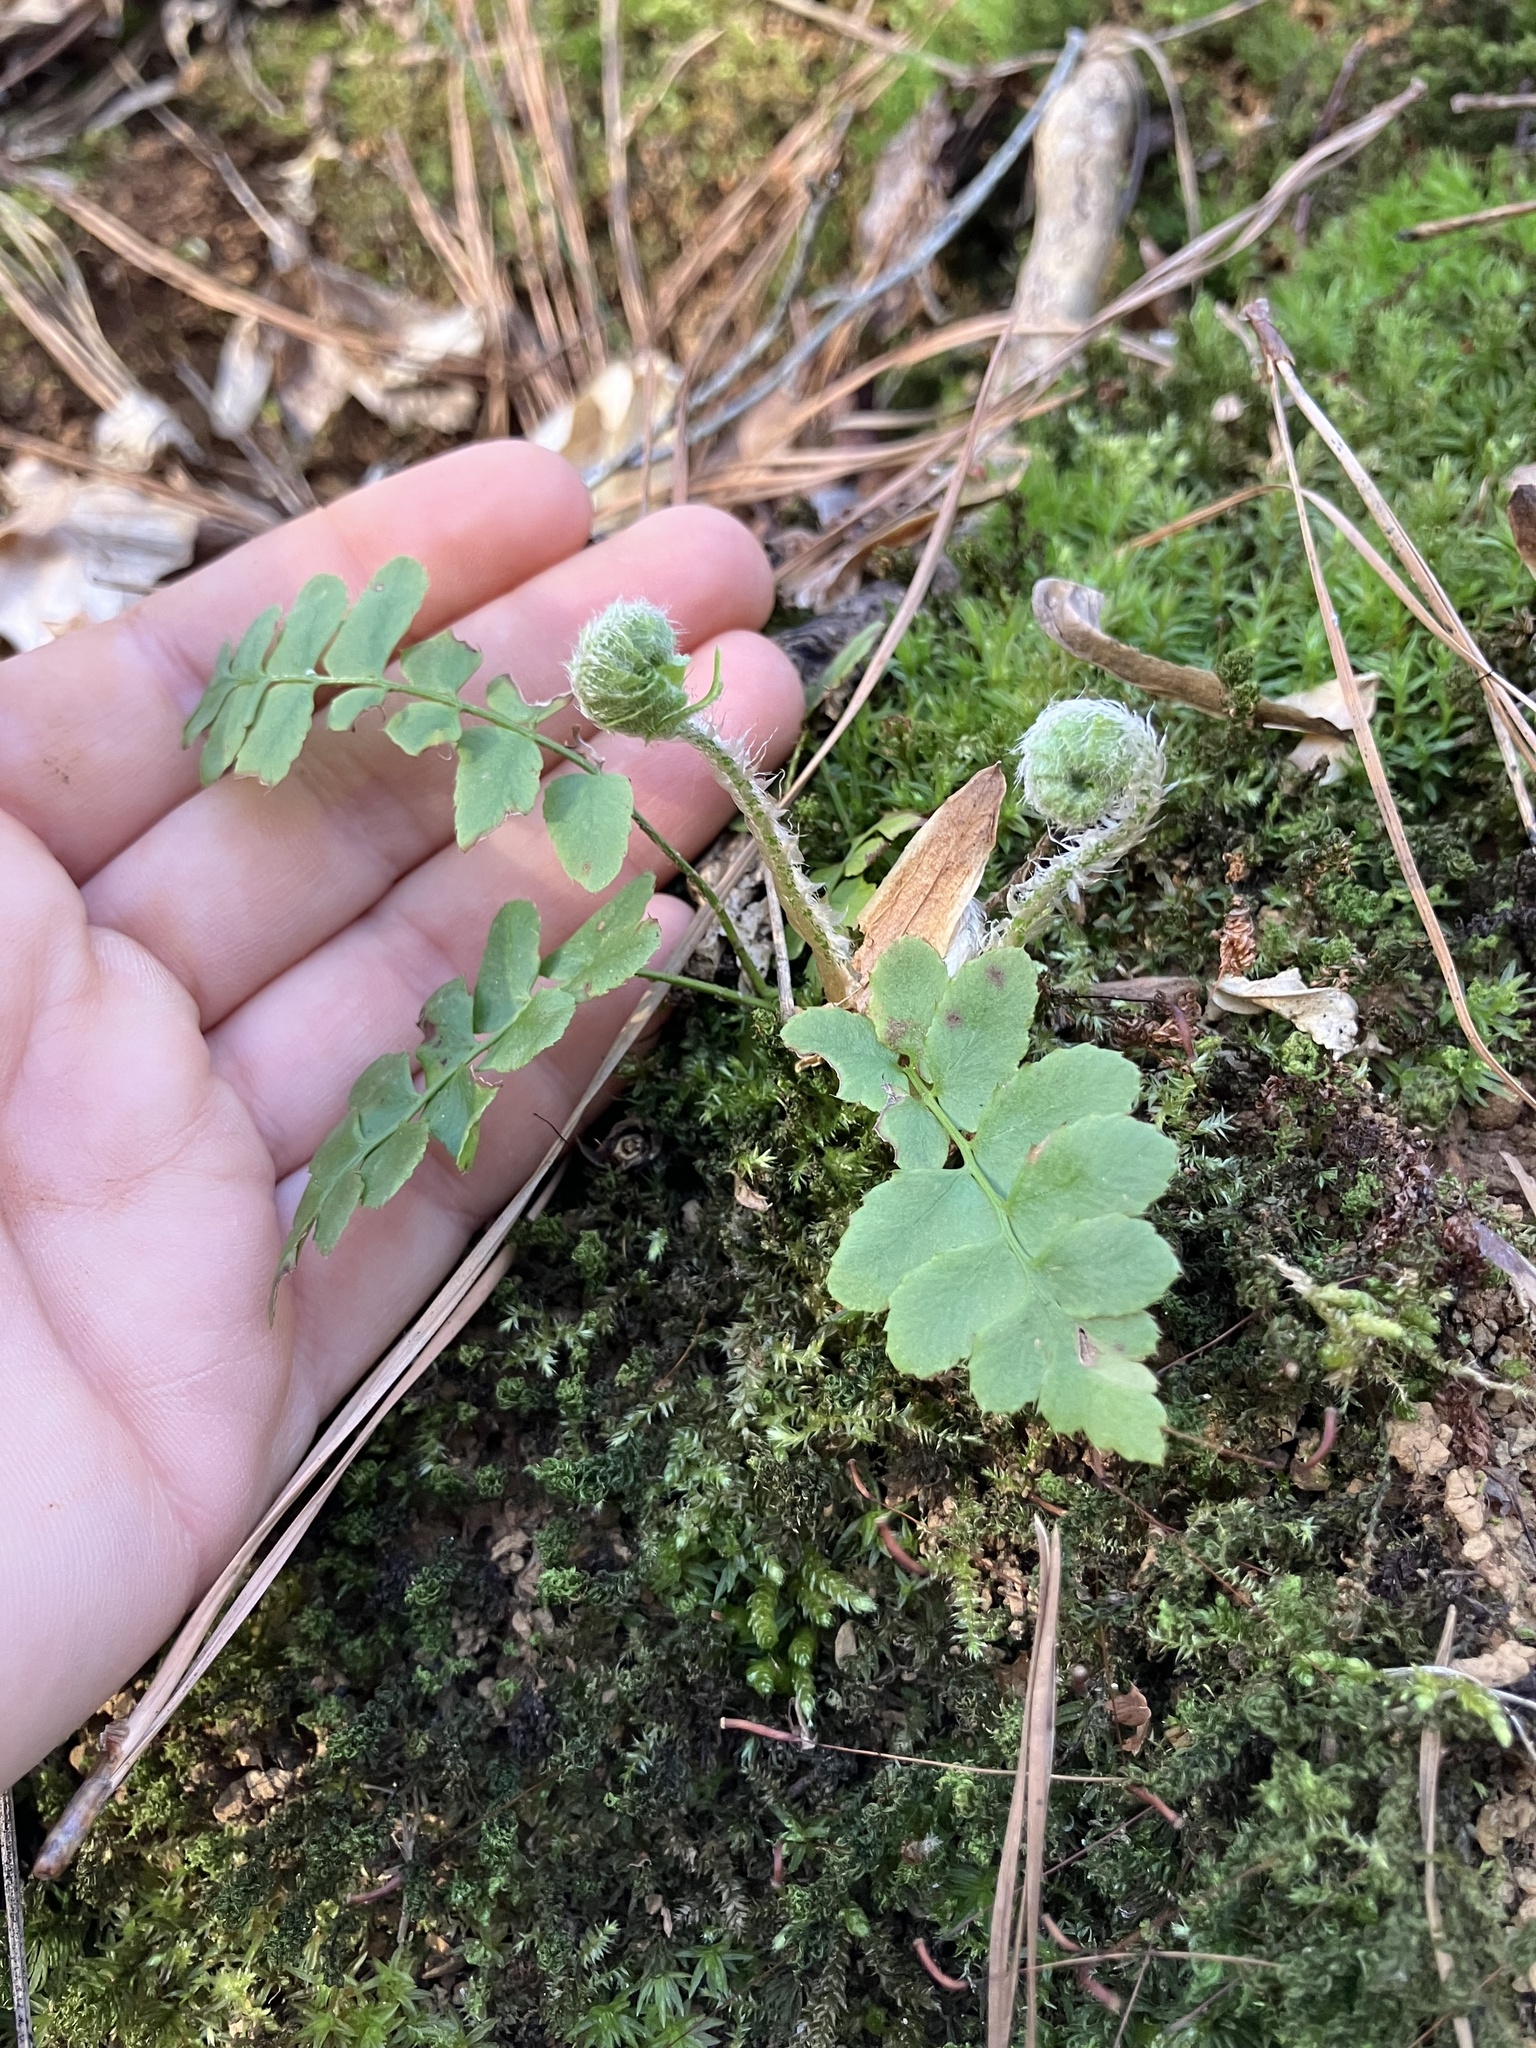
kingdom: Plantae
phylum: Tracheophyta
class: Polypodiopsida
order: Polypodiales
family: Dryopteridaceae
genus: Polystichum
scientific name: Polystichum acrostichoides
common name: Christmas fern
